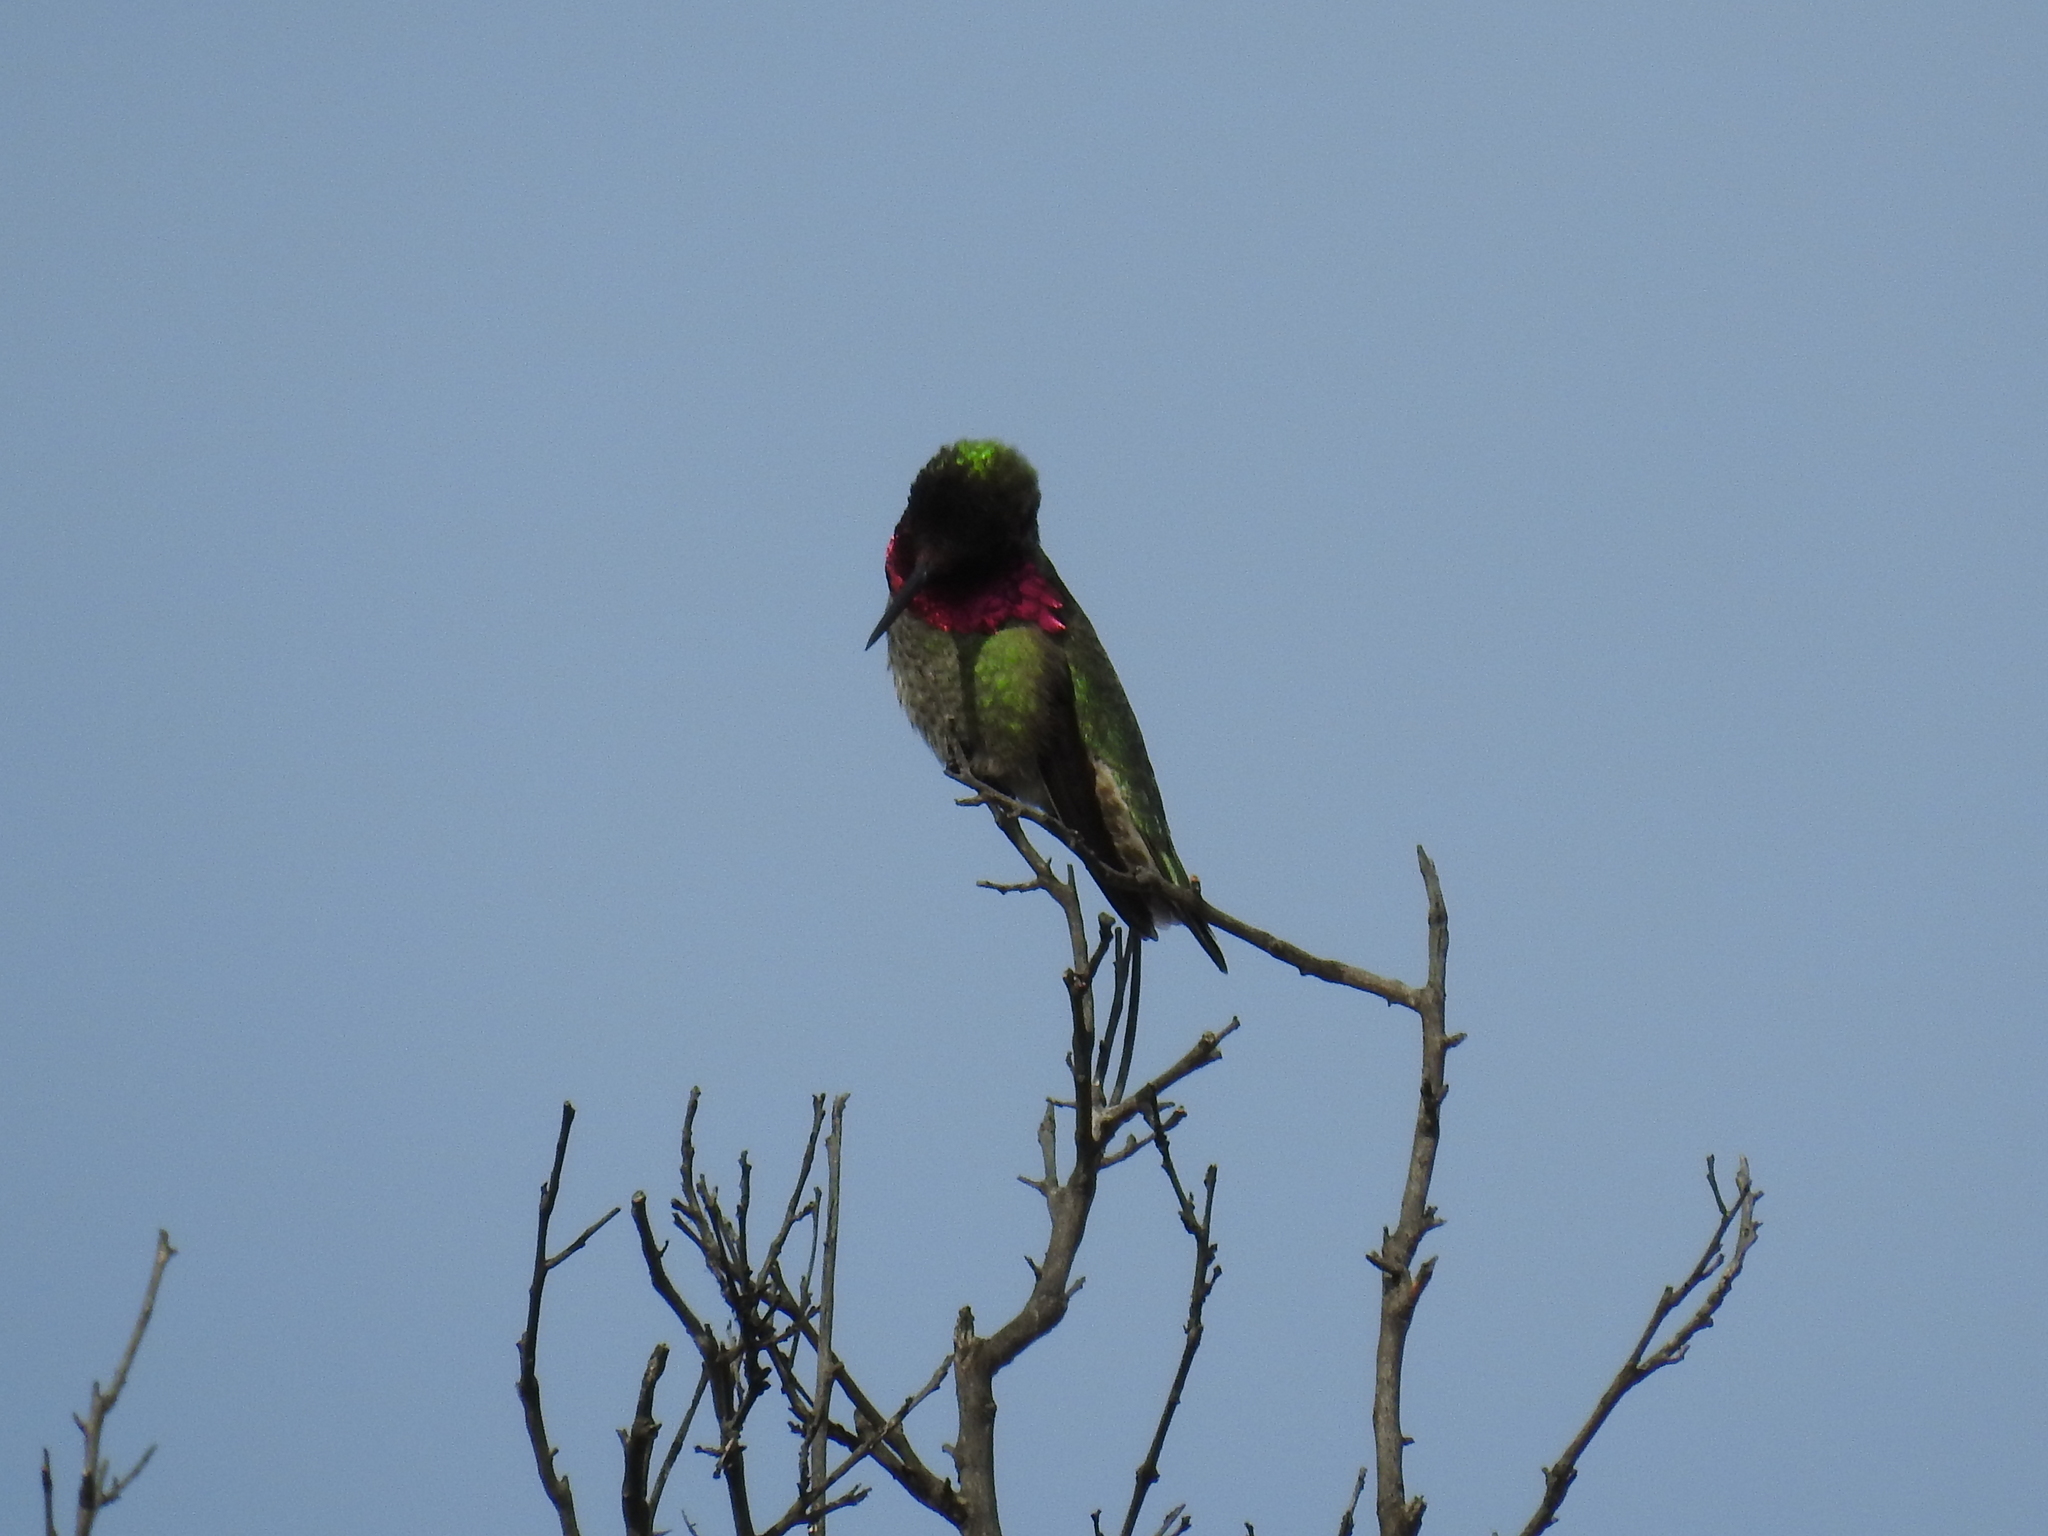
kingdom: Animalia
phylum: Chordata
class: Aves
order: Apodiformes
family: Trochilidae
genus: Calypte
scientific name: Calypte anna
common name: Anna's hummingbird
